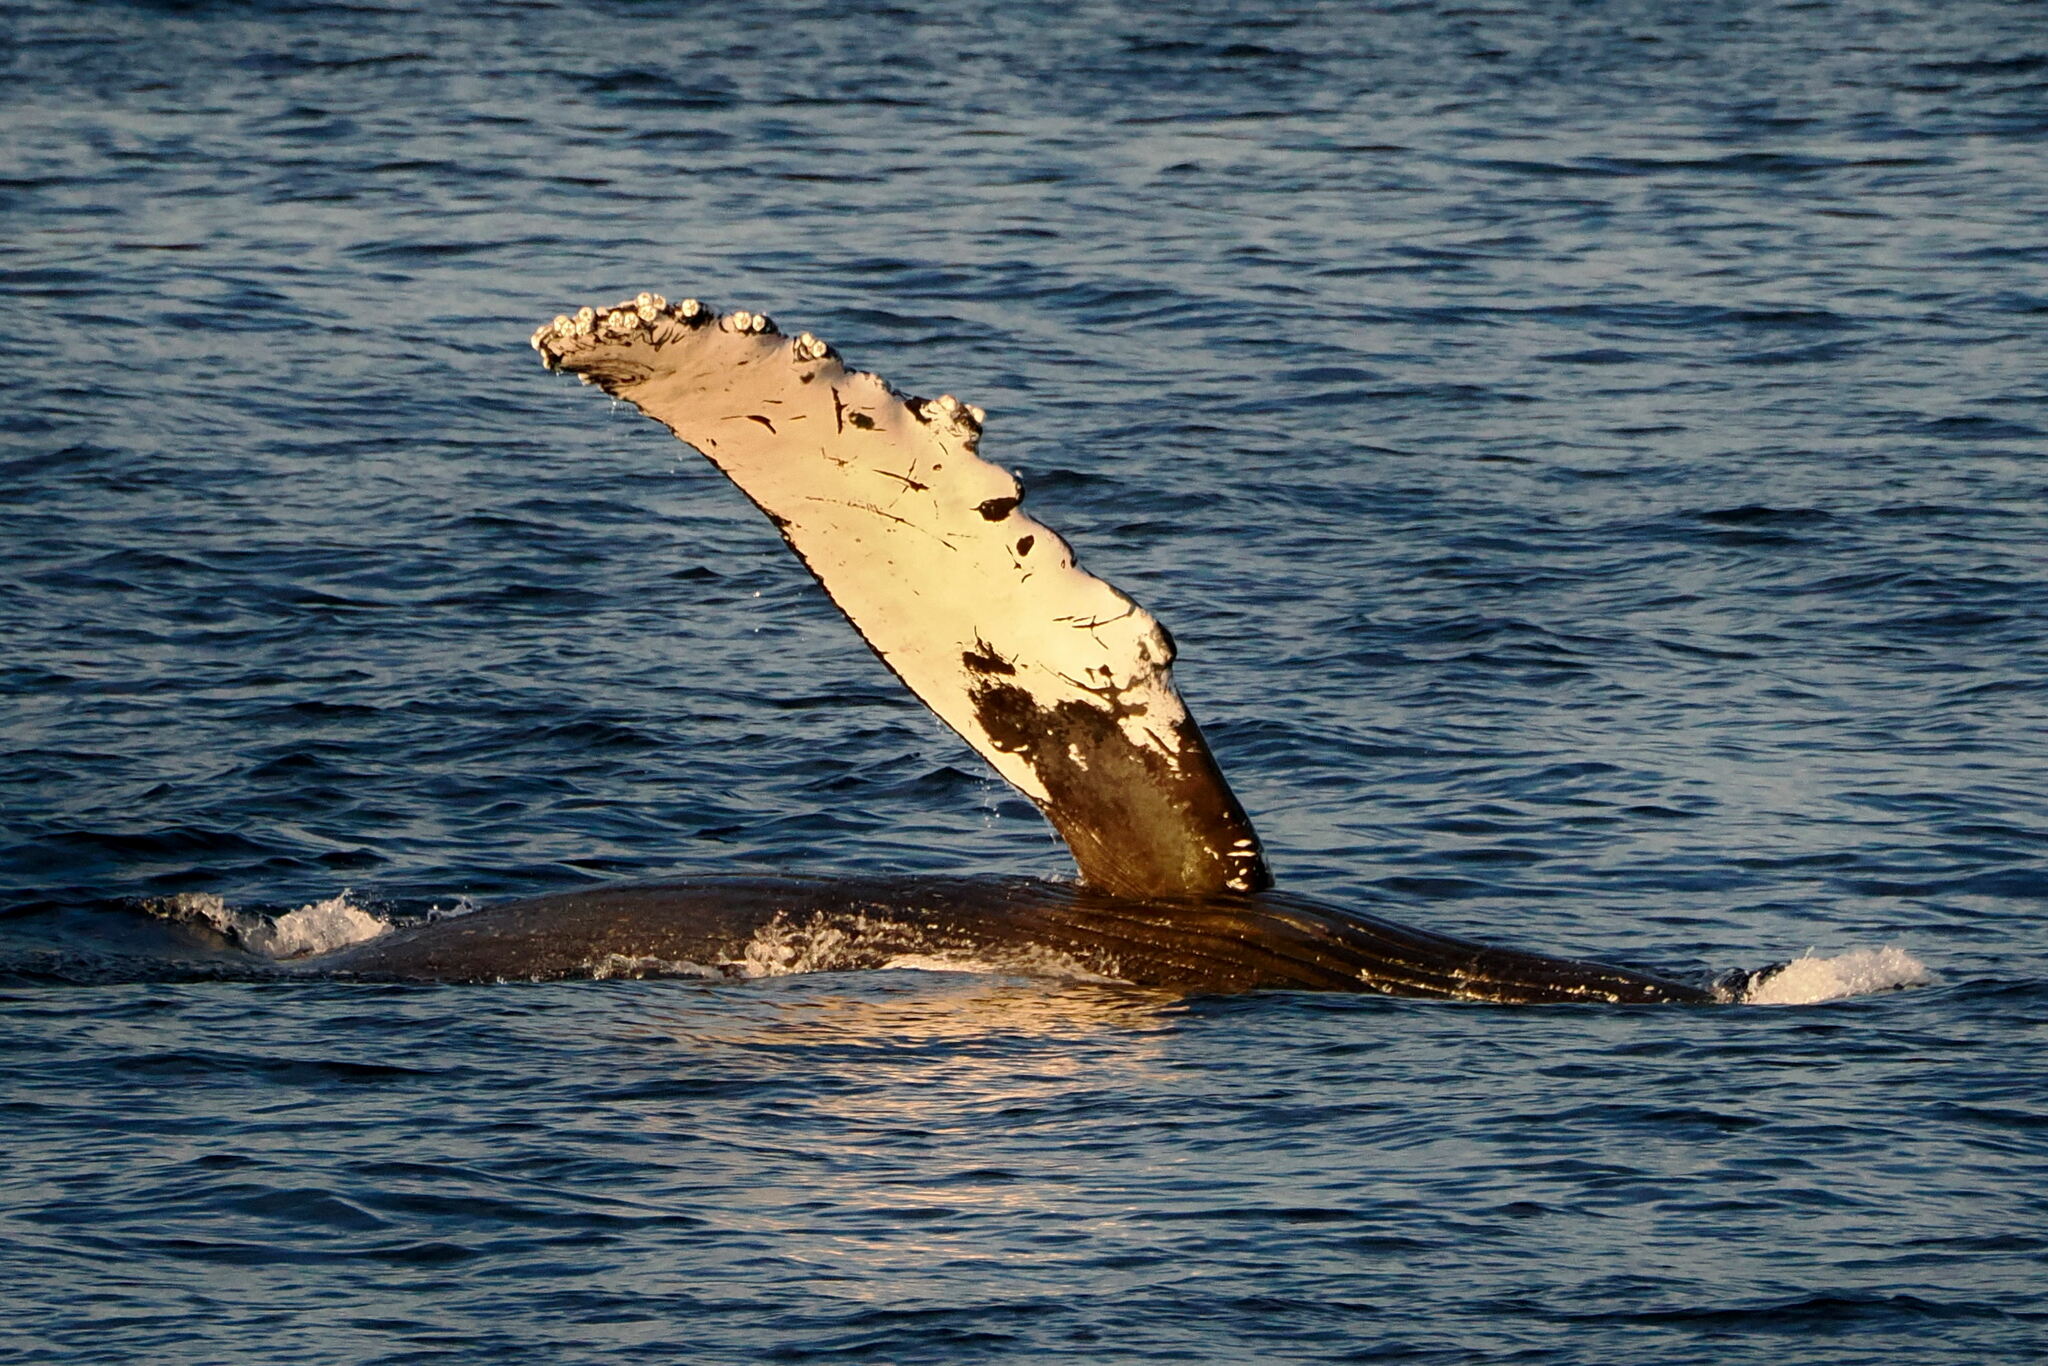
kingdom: Animalia
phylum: Chordata
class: Mammalia
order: Cetacea
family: Balaenopteridae
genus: Megaptera
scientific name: Megaptera novaeangliae
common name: Humpback whale
